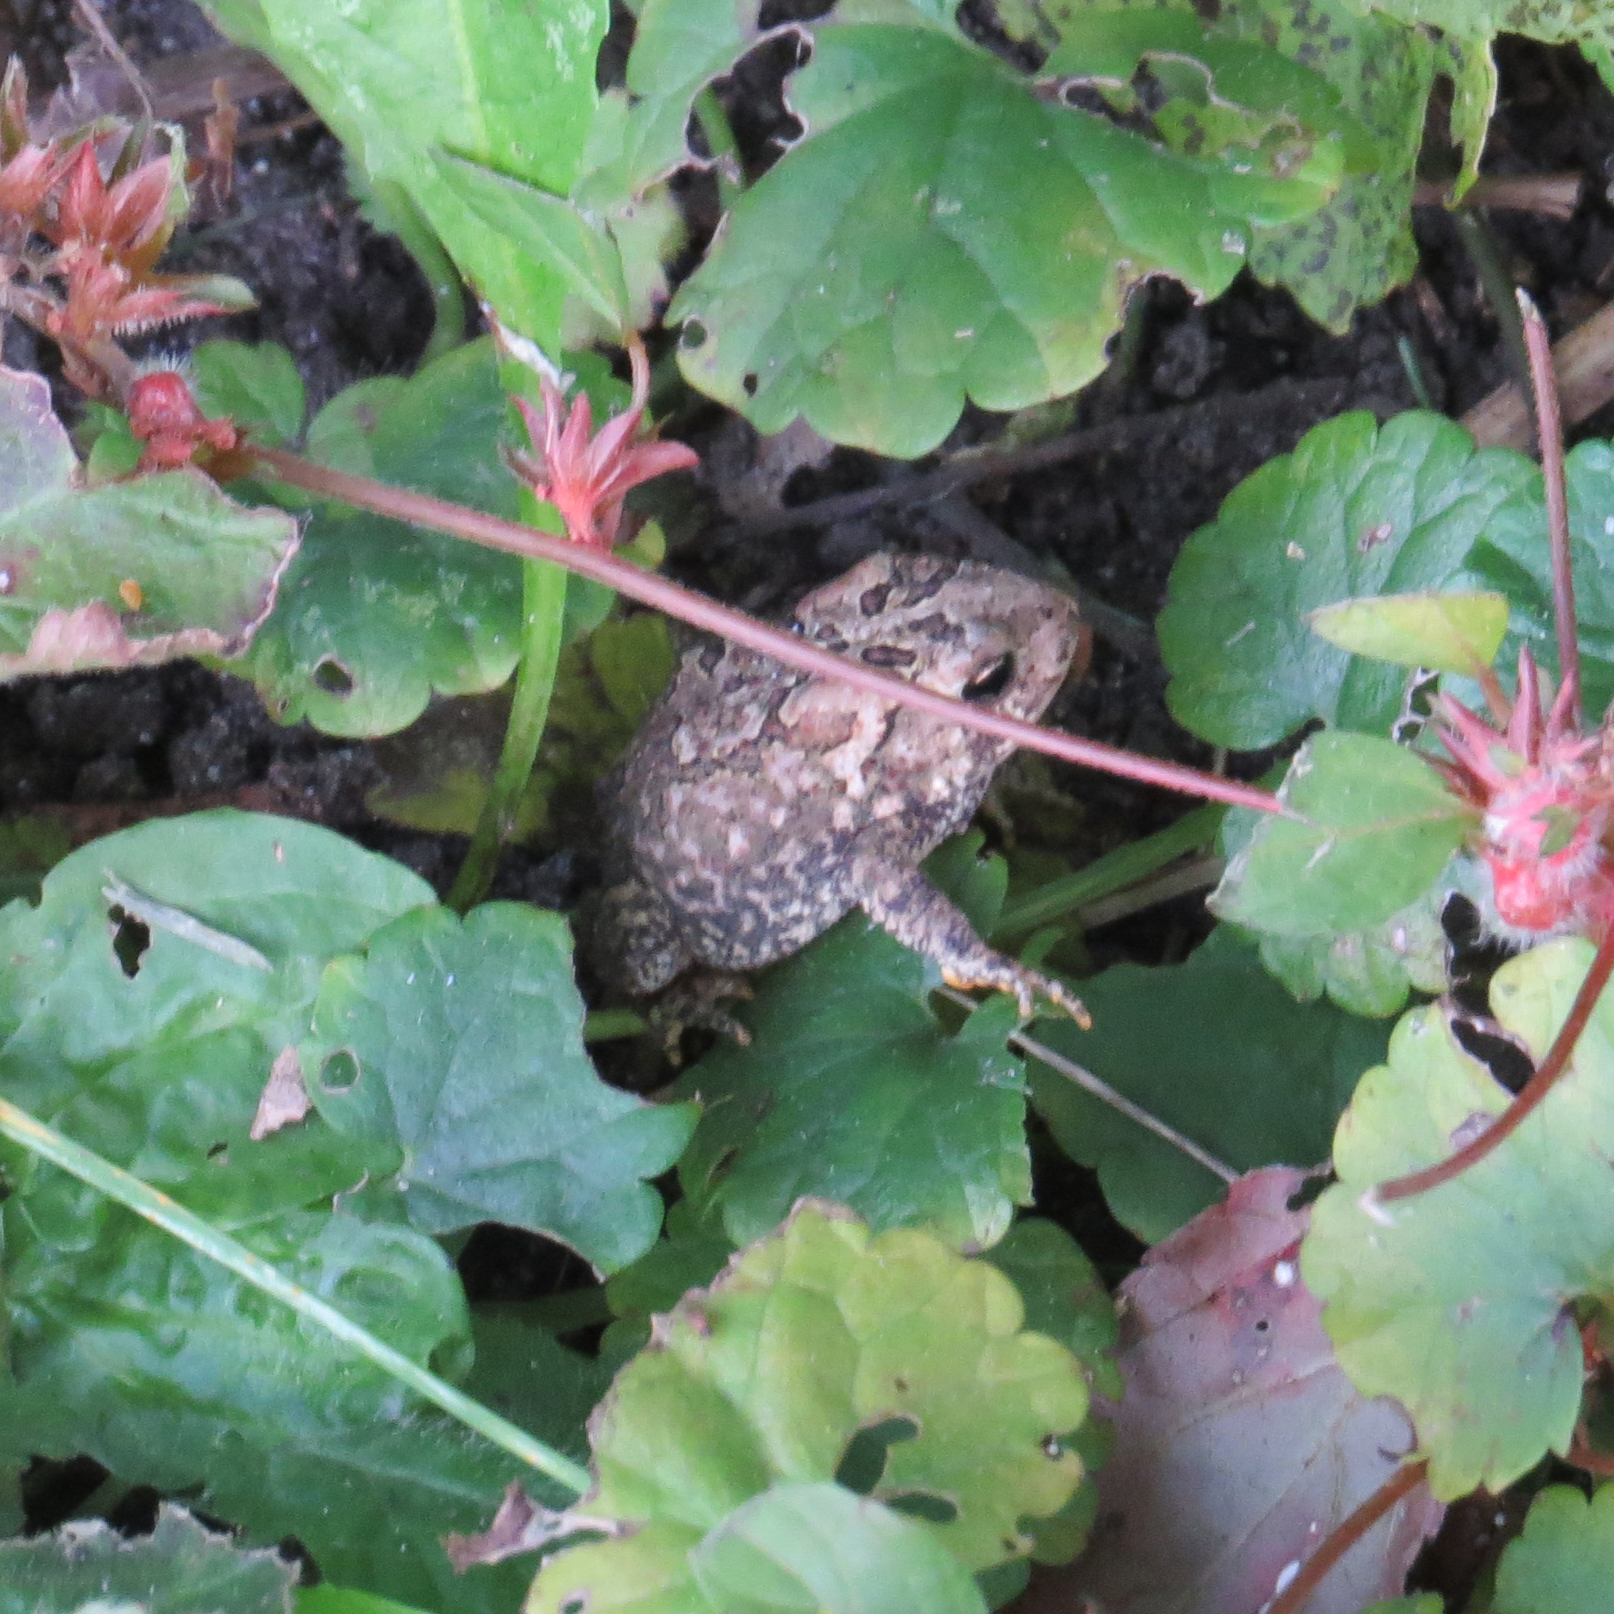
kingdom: Animalia
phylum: Chordata
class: Amphibia
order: Anura
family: Bufonidae
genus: Anaxyrus
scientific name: Anaxyrus americanus
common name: American toad
